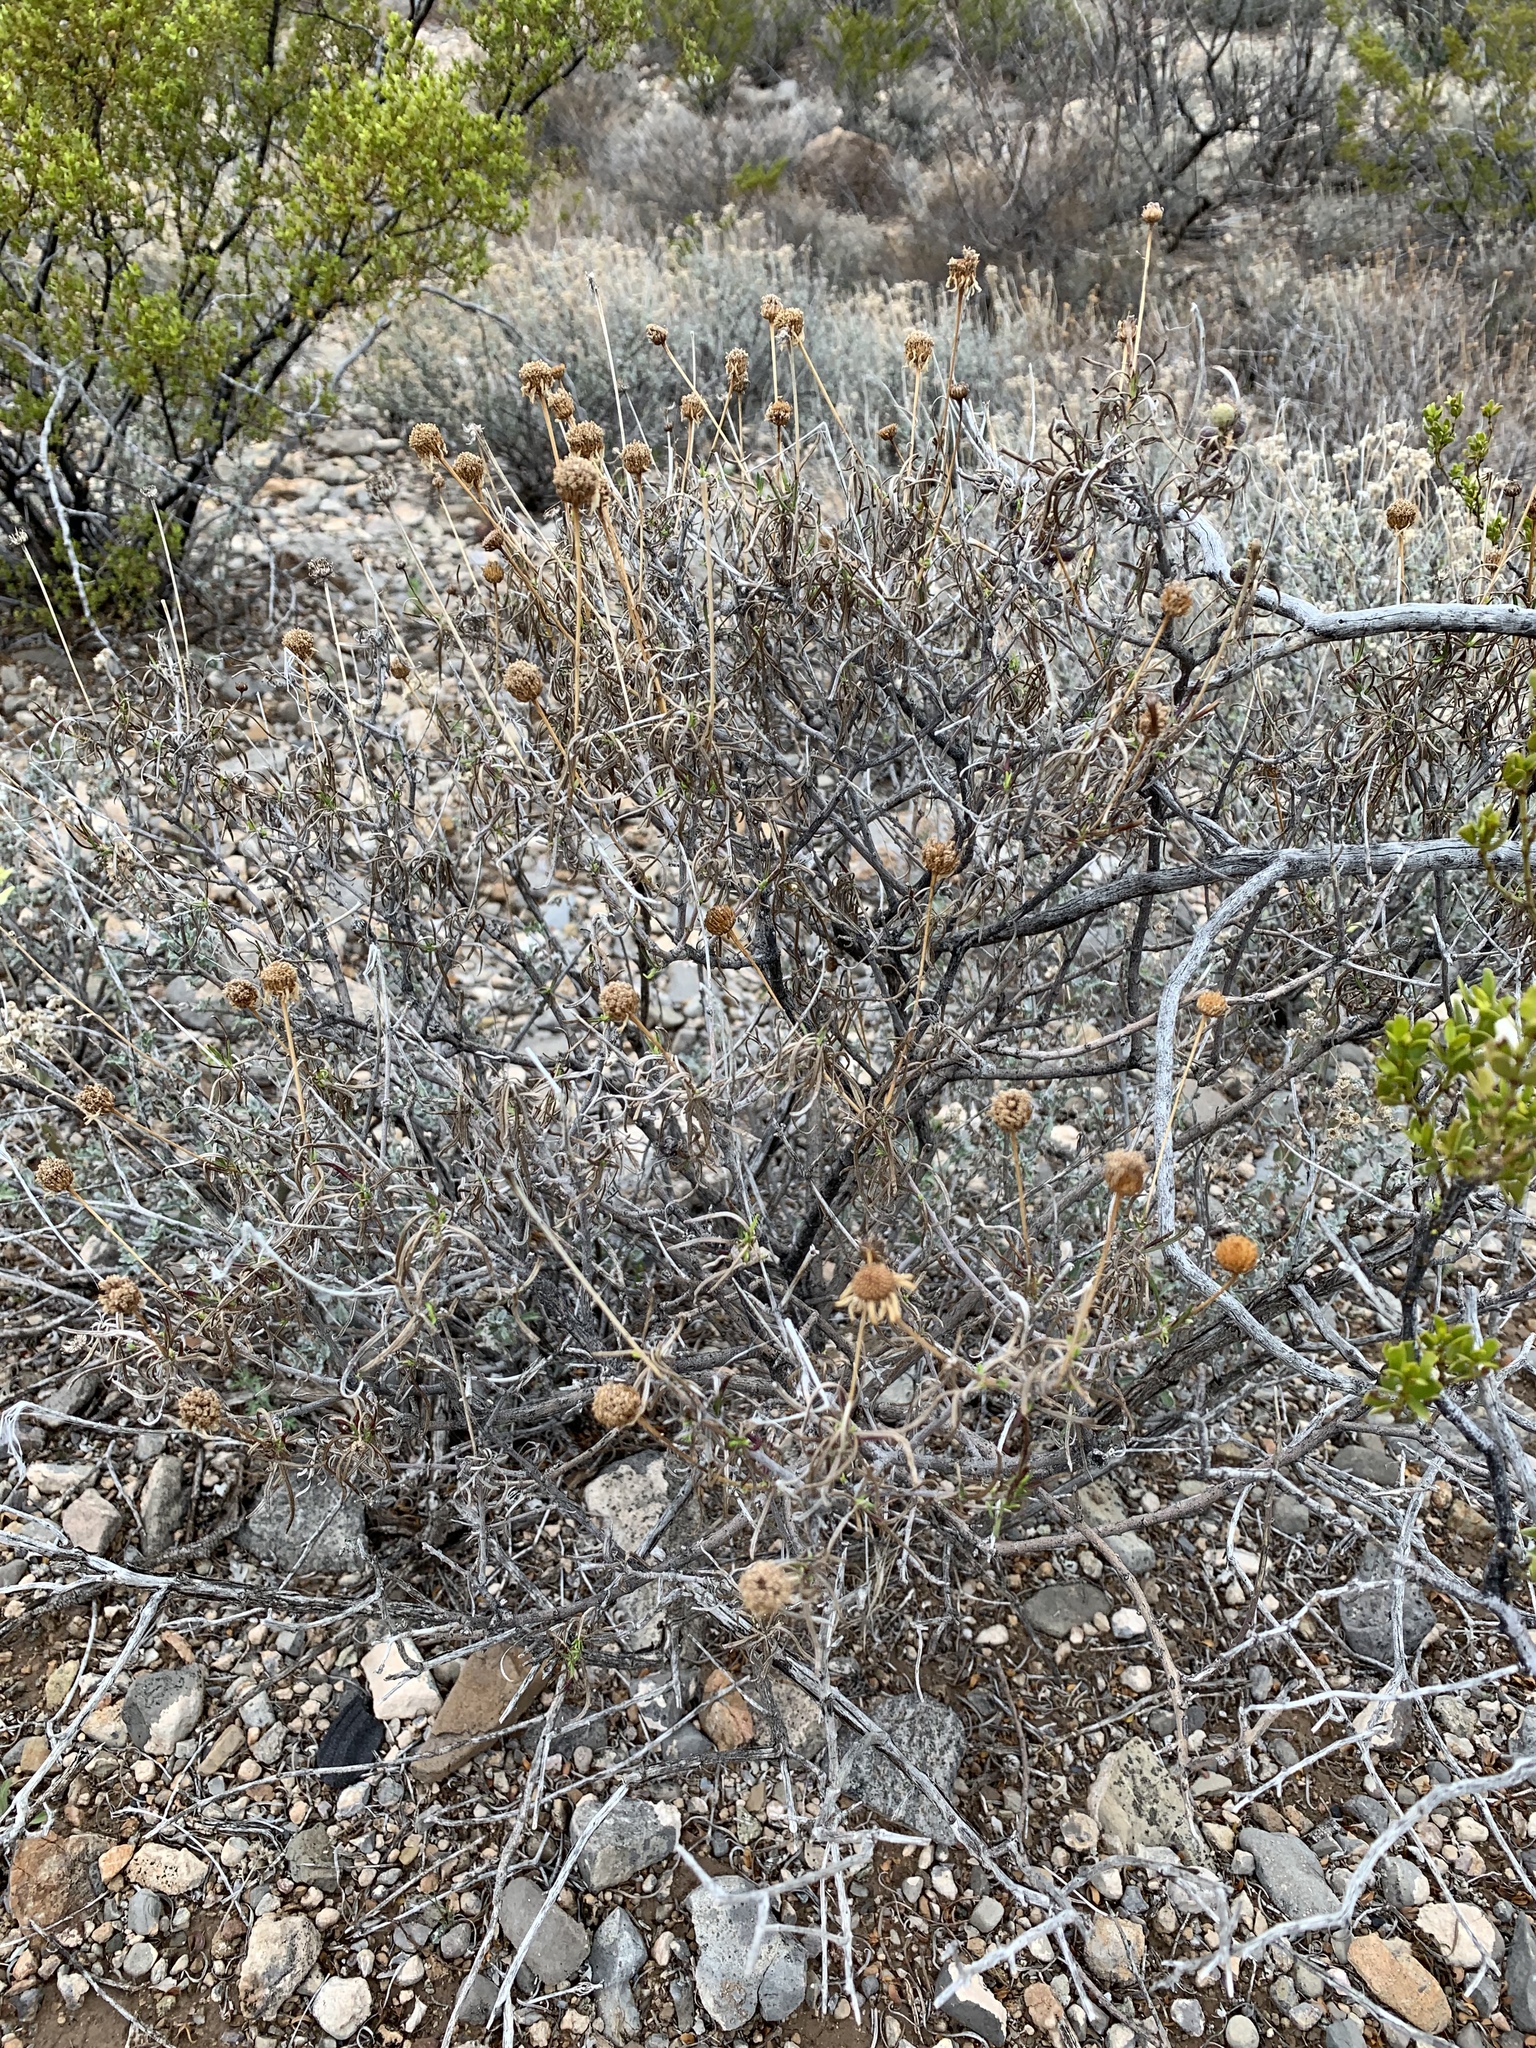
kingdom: Plantae
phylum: Tracheophyta
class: Magnoliopsida
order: Asterales
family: Asteraceae
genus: Sidneya
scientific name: Sidneya tenuifolia
